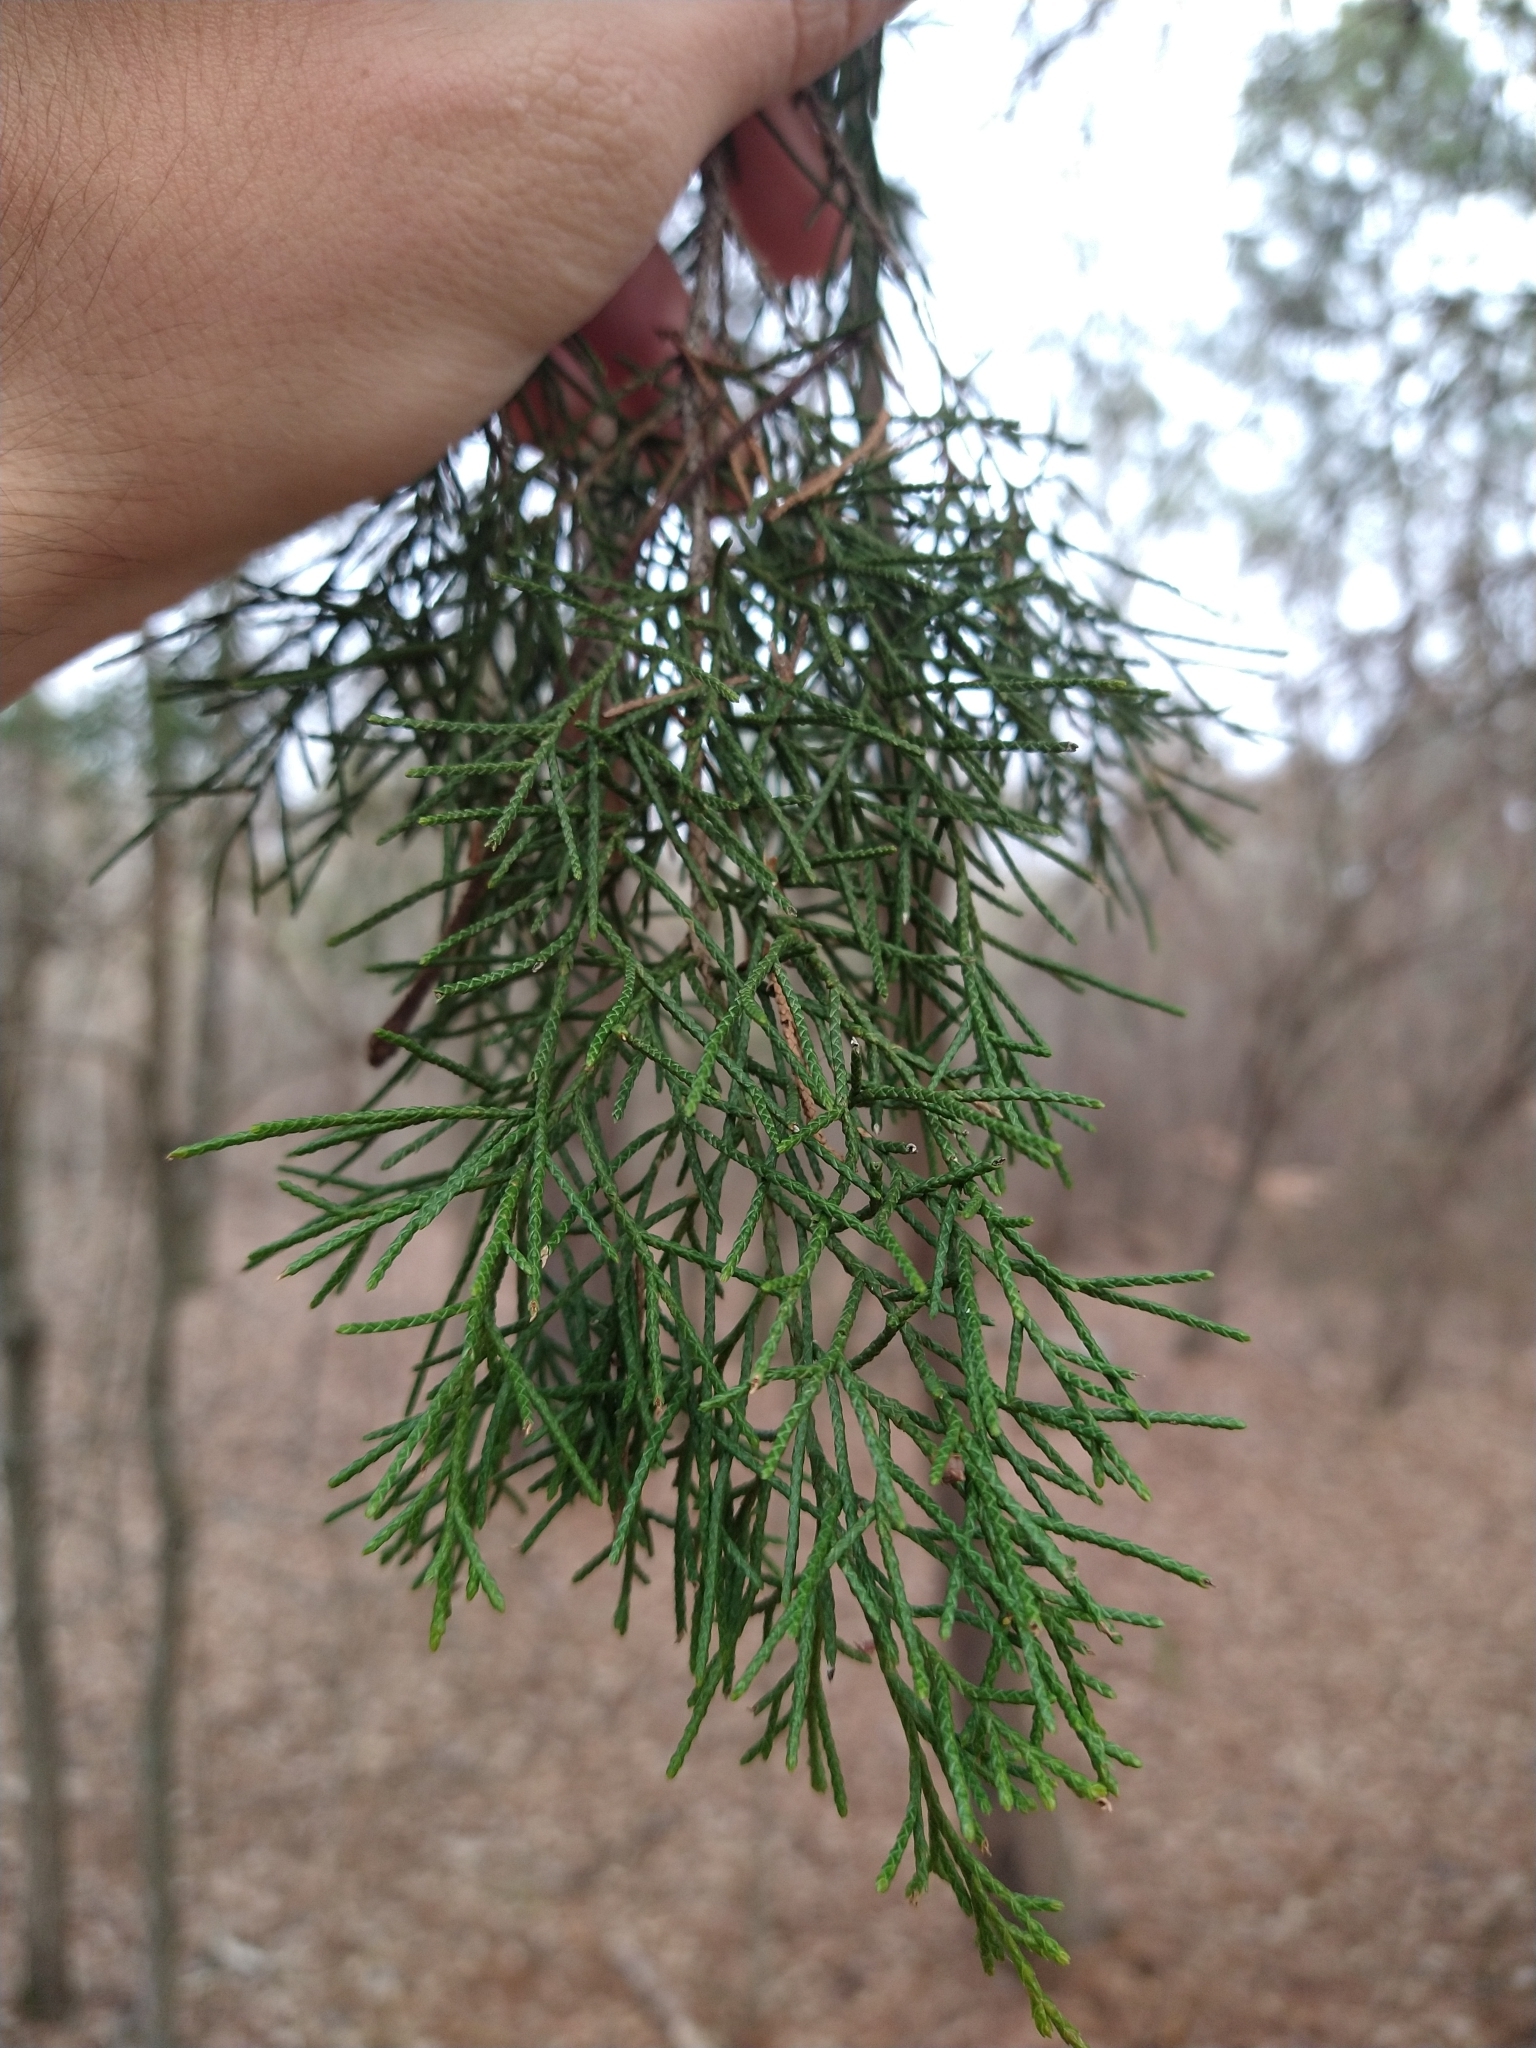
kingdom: Plantae
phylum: Tracheophyta
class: Pinopsida
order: Pinales
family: Cupressaceae
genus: Juniperus
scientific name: Juniperus virginiana
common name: Red juniper
